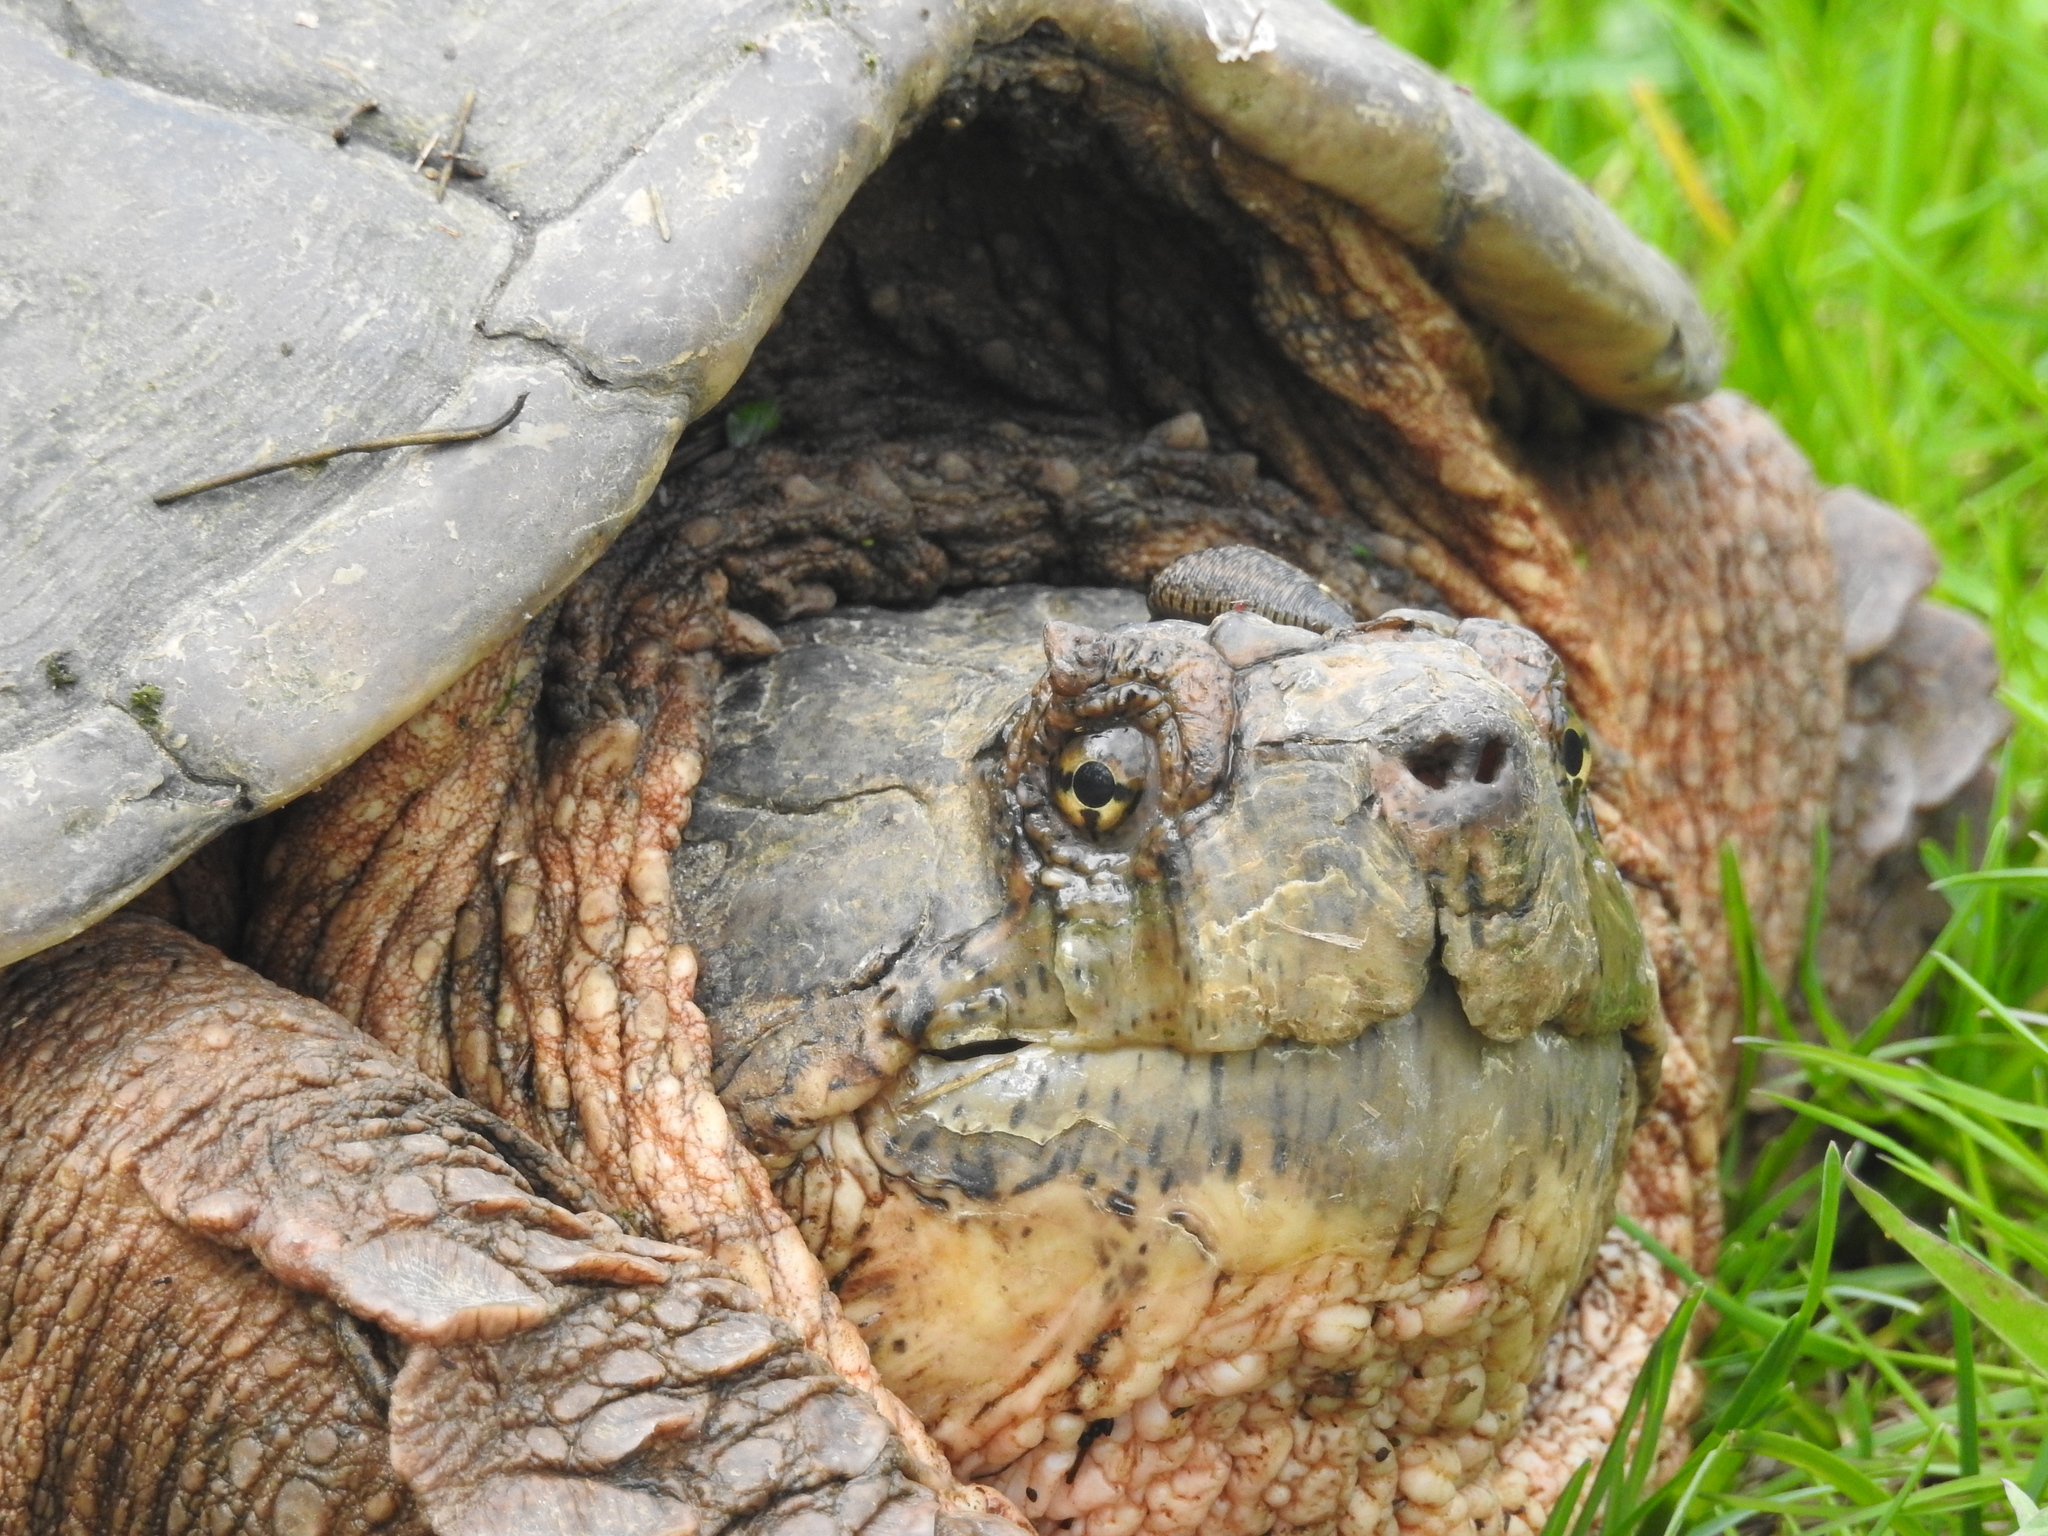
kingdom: Animalia
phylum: Chordata
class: Testudines
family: Chelydridae
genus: Chelydra
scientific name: Chelydra serpentina
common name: Common snapping turtle
